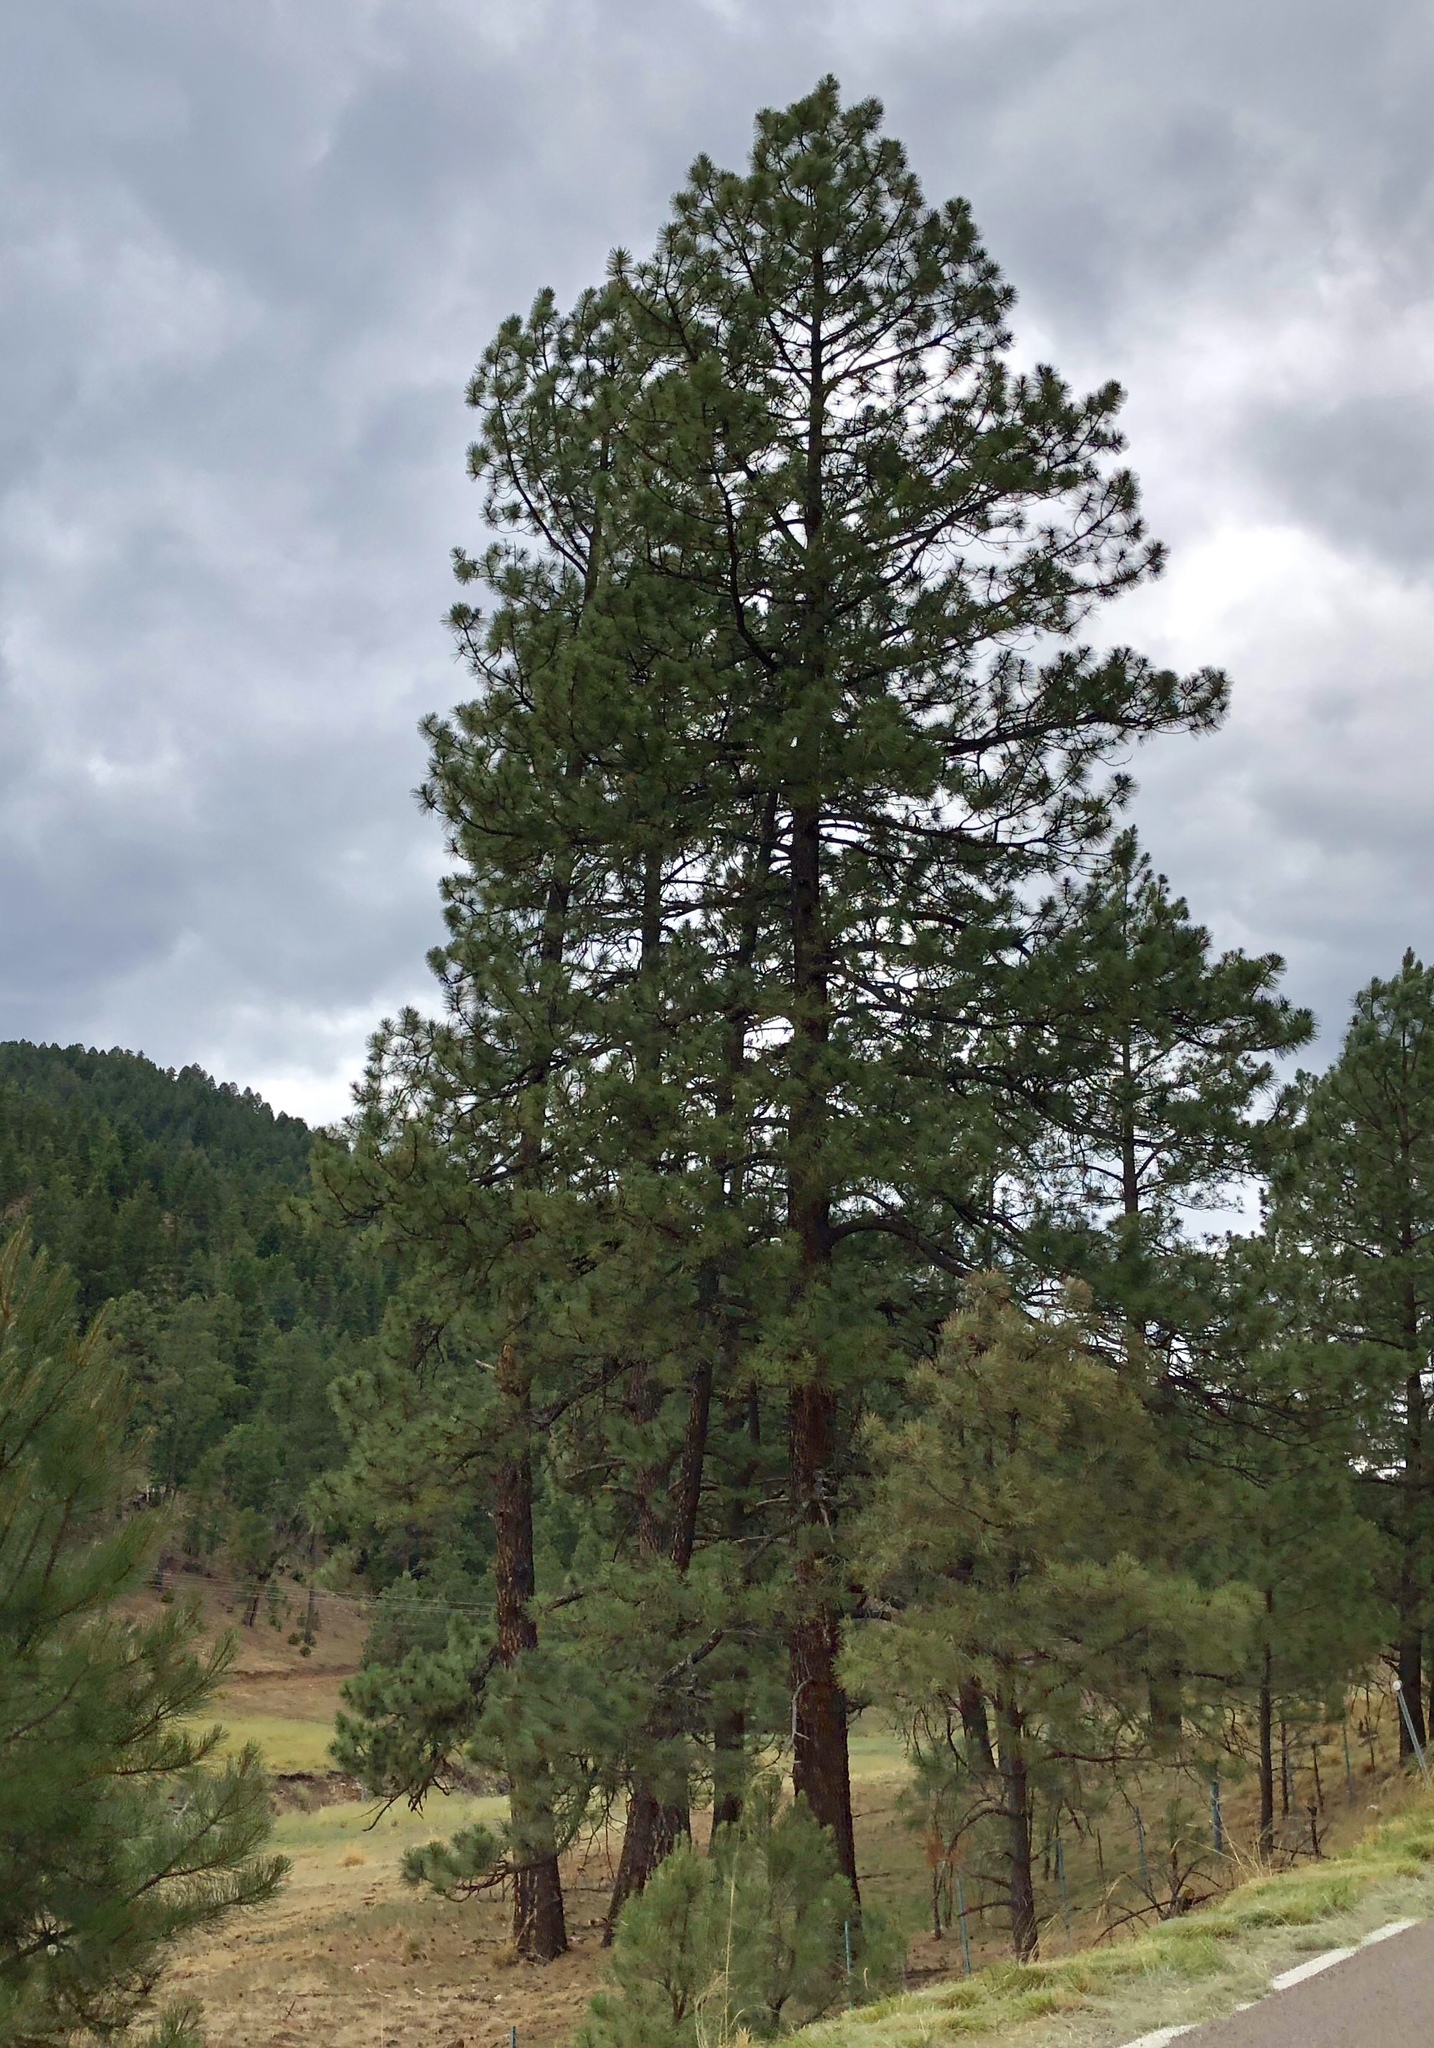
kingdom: Plantae
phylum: Tracheophyta
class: Pinopsida
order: Pinales
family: Pinaceae
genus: Pinus
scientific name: Pinus ponderosa
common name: Western yellow-pine
